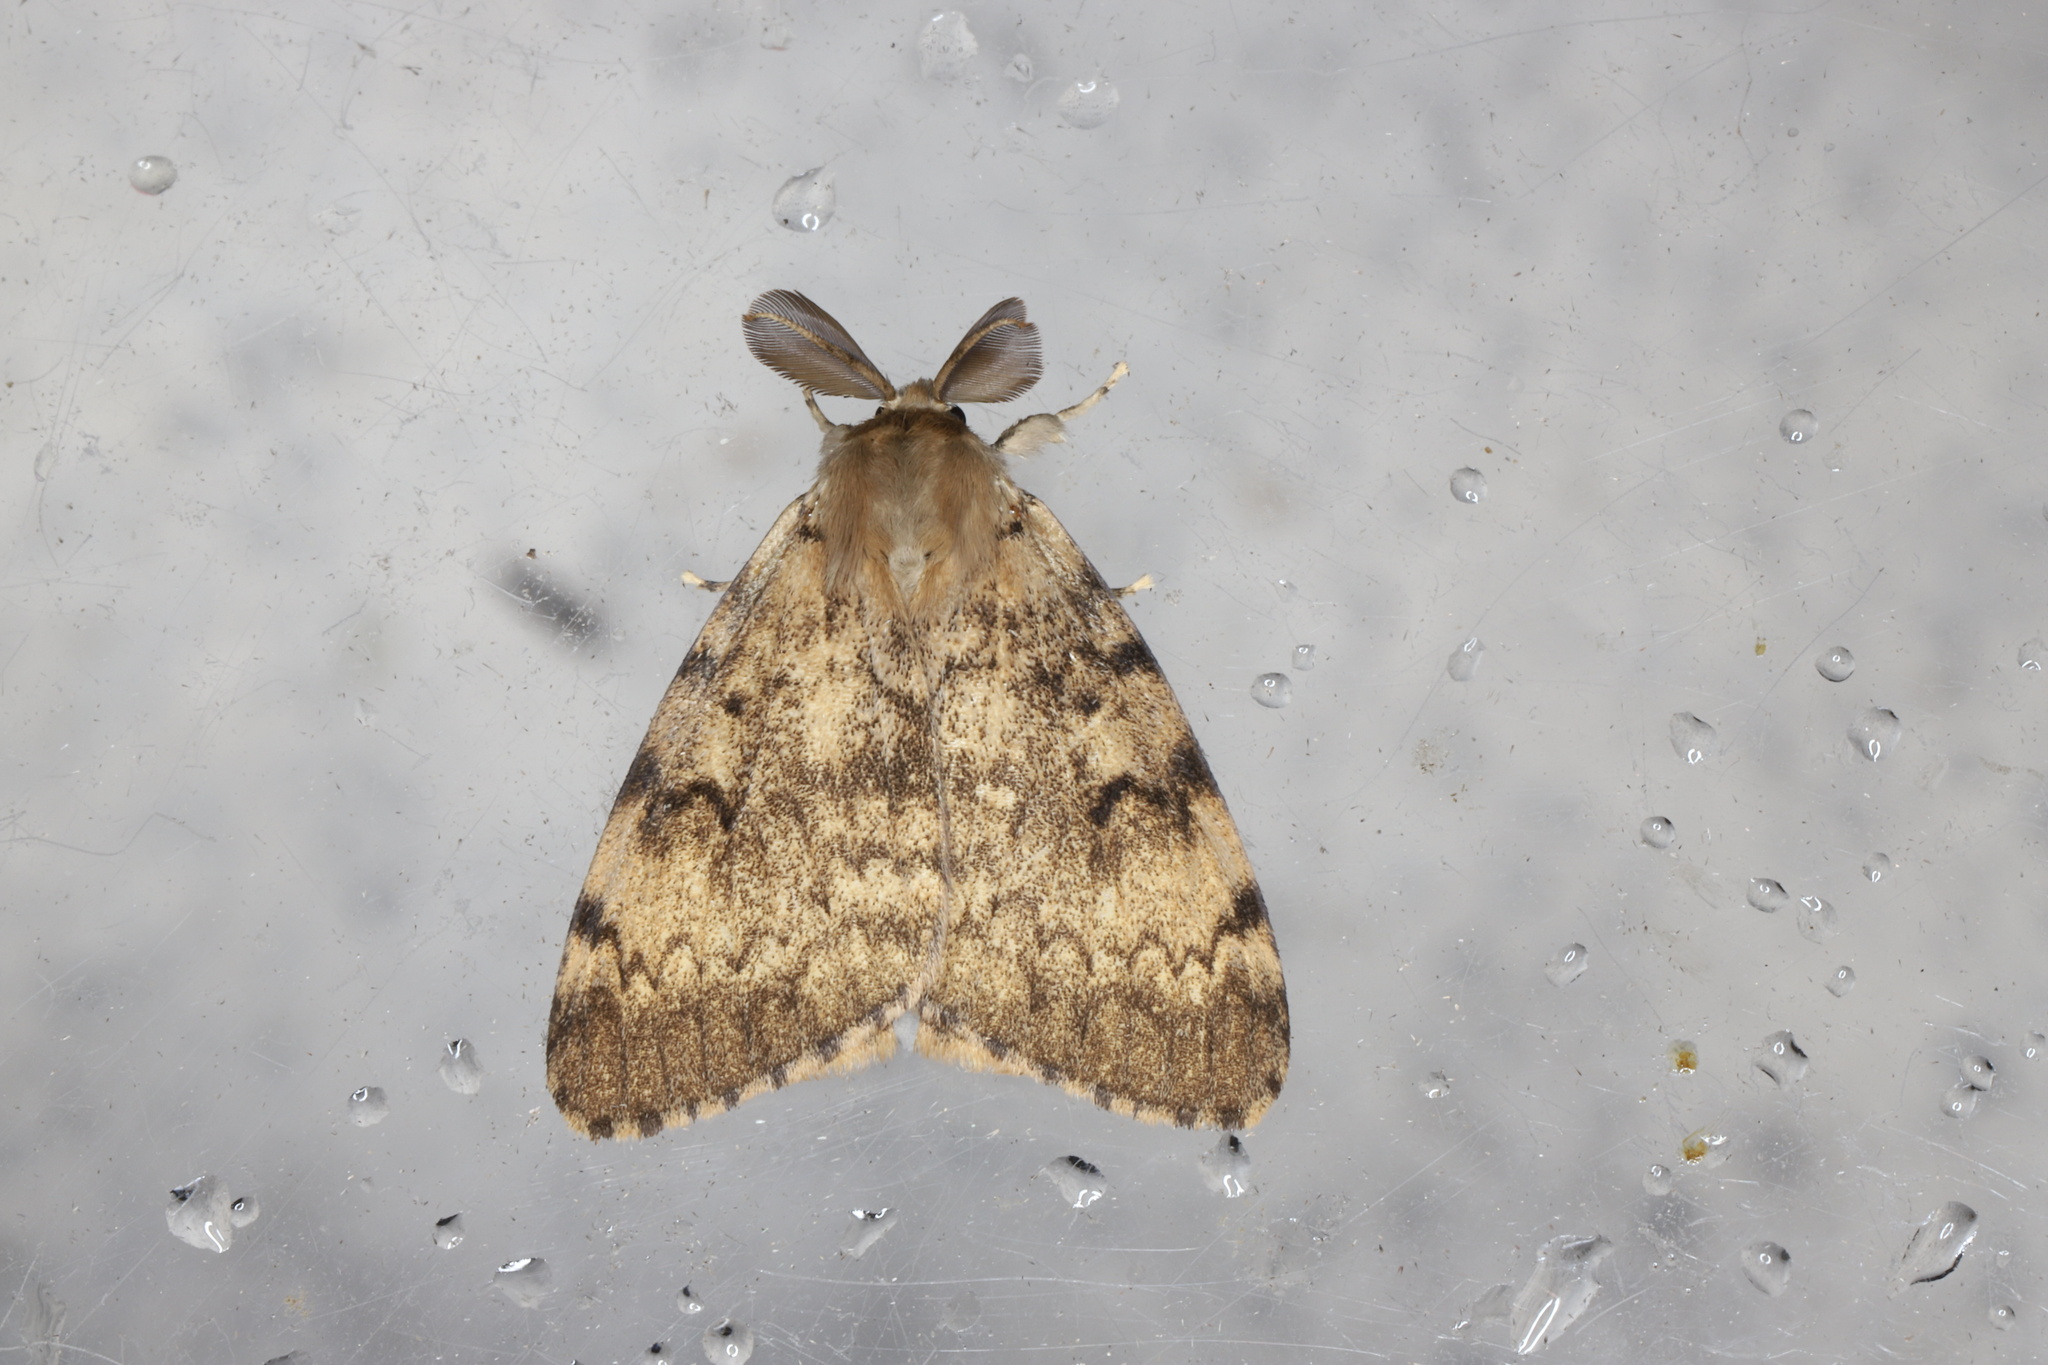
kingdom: Animalia
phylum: Arthropoda
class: Insecta
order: Lepidoptera
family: Erebidae
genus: Lymantria
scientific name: Lymantria dispar
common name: Gypsy moth
